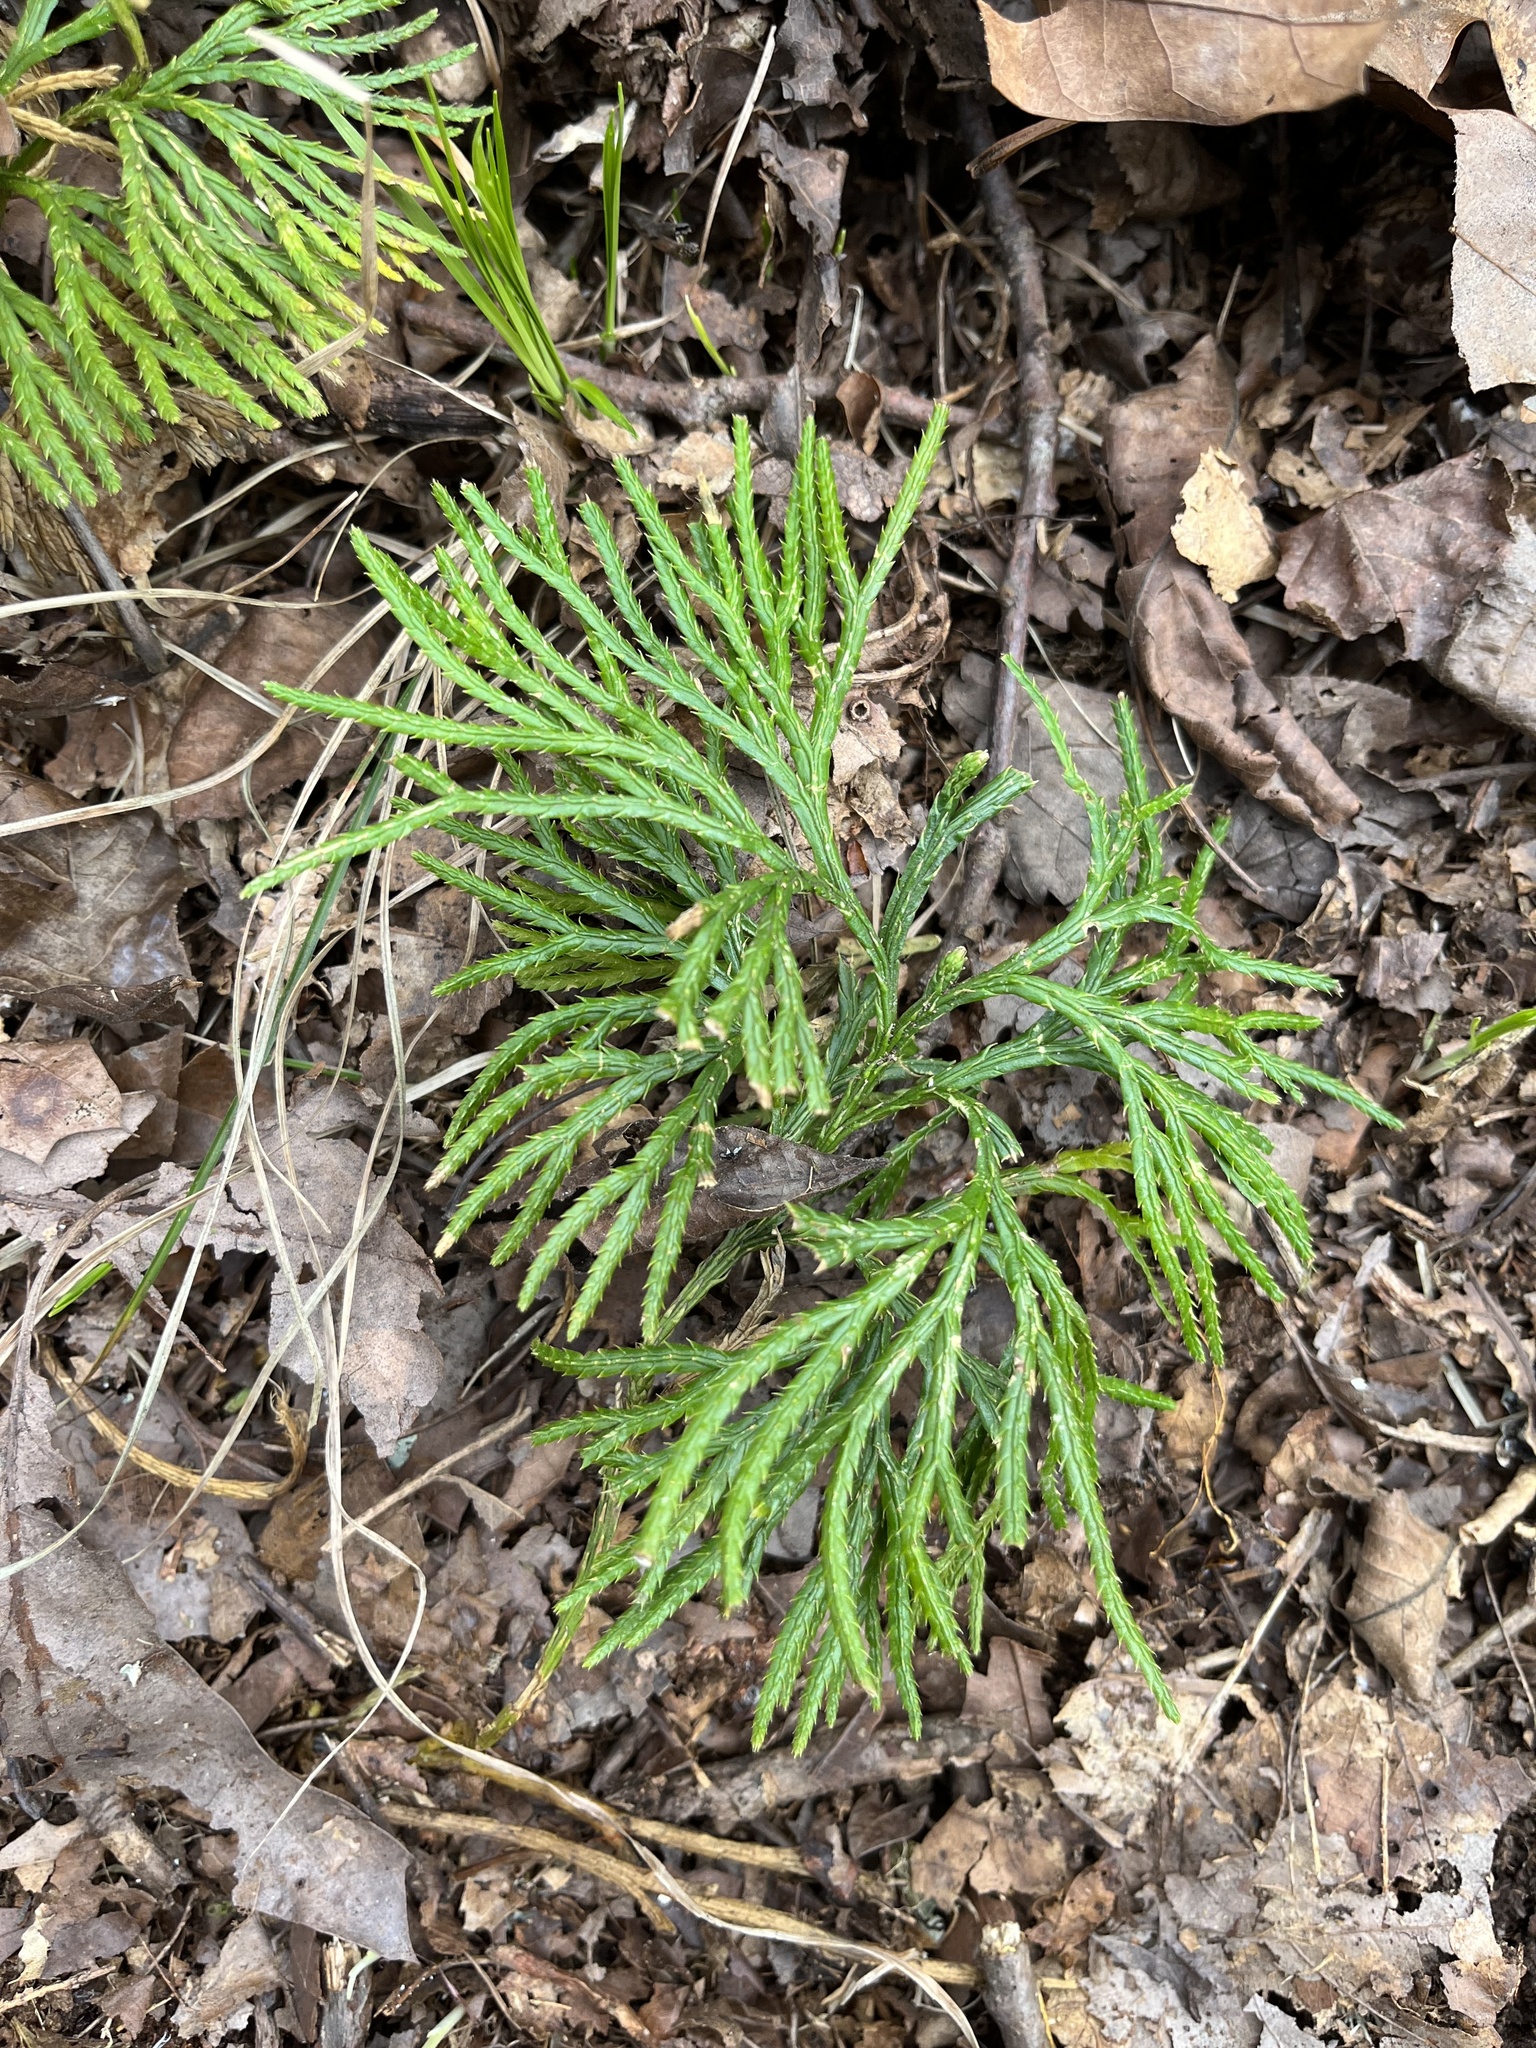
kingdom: Plantae
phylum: Tracheophyta
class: Lycopodiopsida
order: Lycopodiales
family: Lycopodiaceae
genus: Diphasiastrum
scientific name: Diphasiastrum digitatum
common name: Southern running-pine
